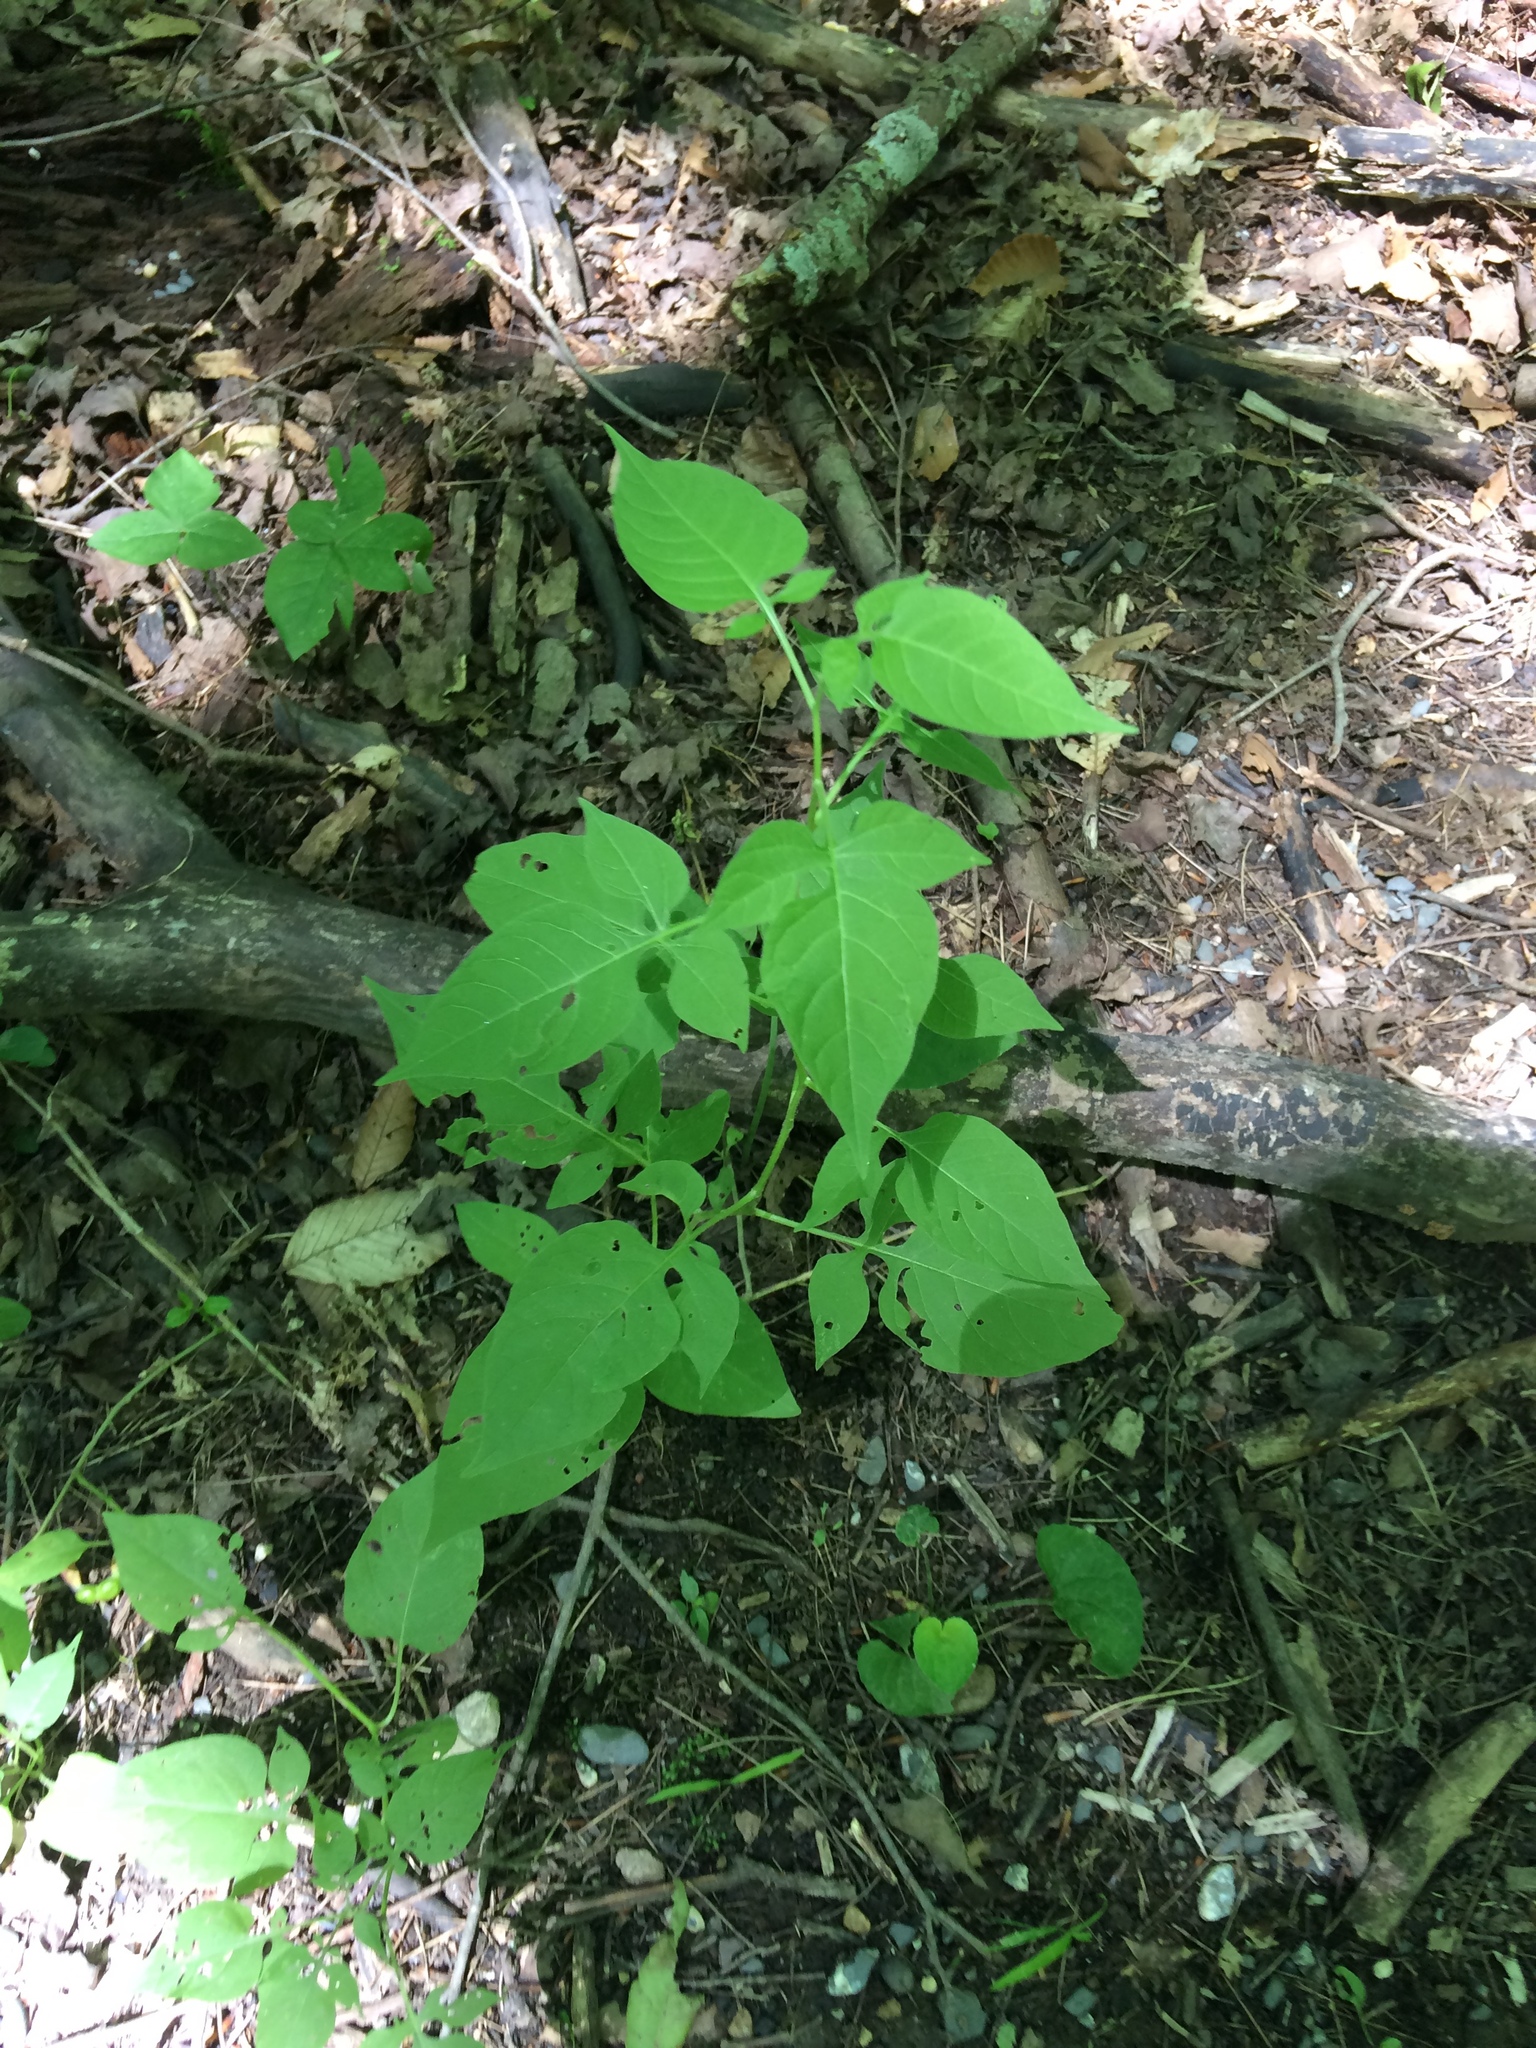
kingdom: Plantae
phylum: Tracheophyta
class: Magnoliopsida
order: Solanales
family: Solanaceae
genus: Solanum
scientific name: Solanum dulcamara
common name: Climbing nightshade
